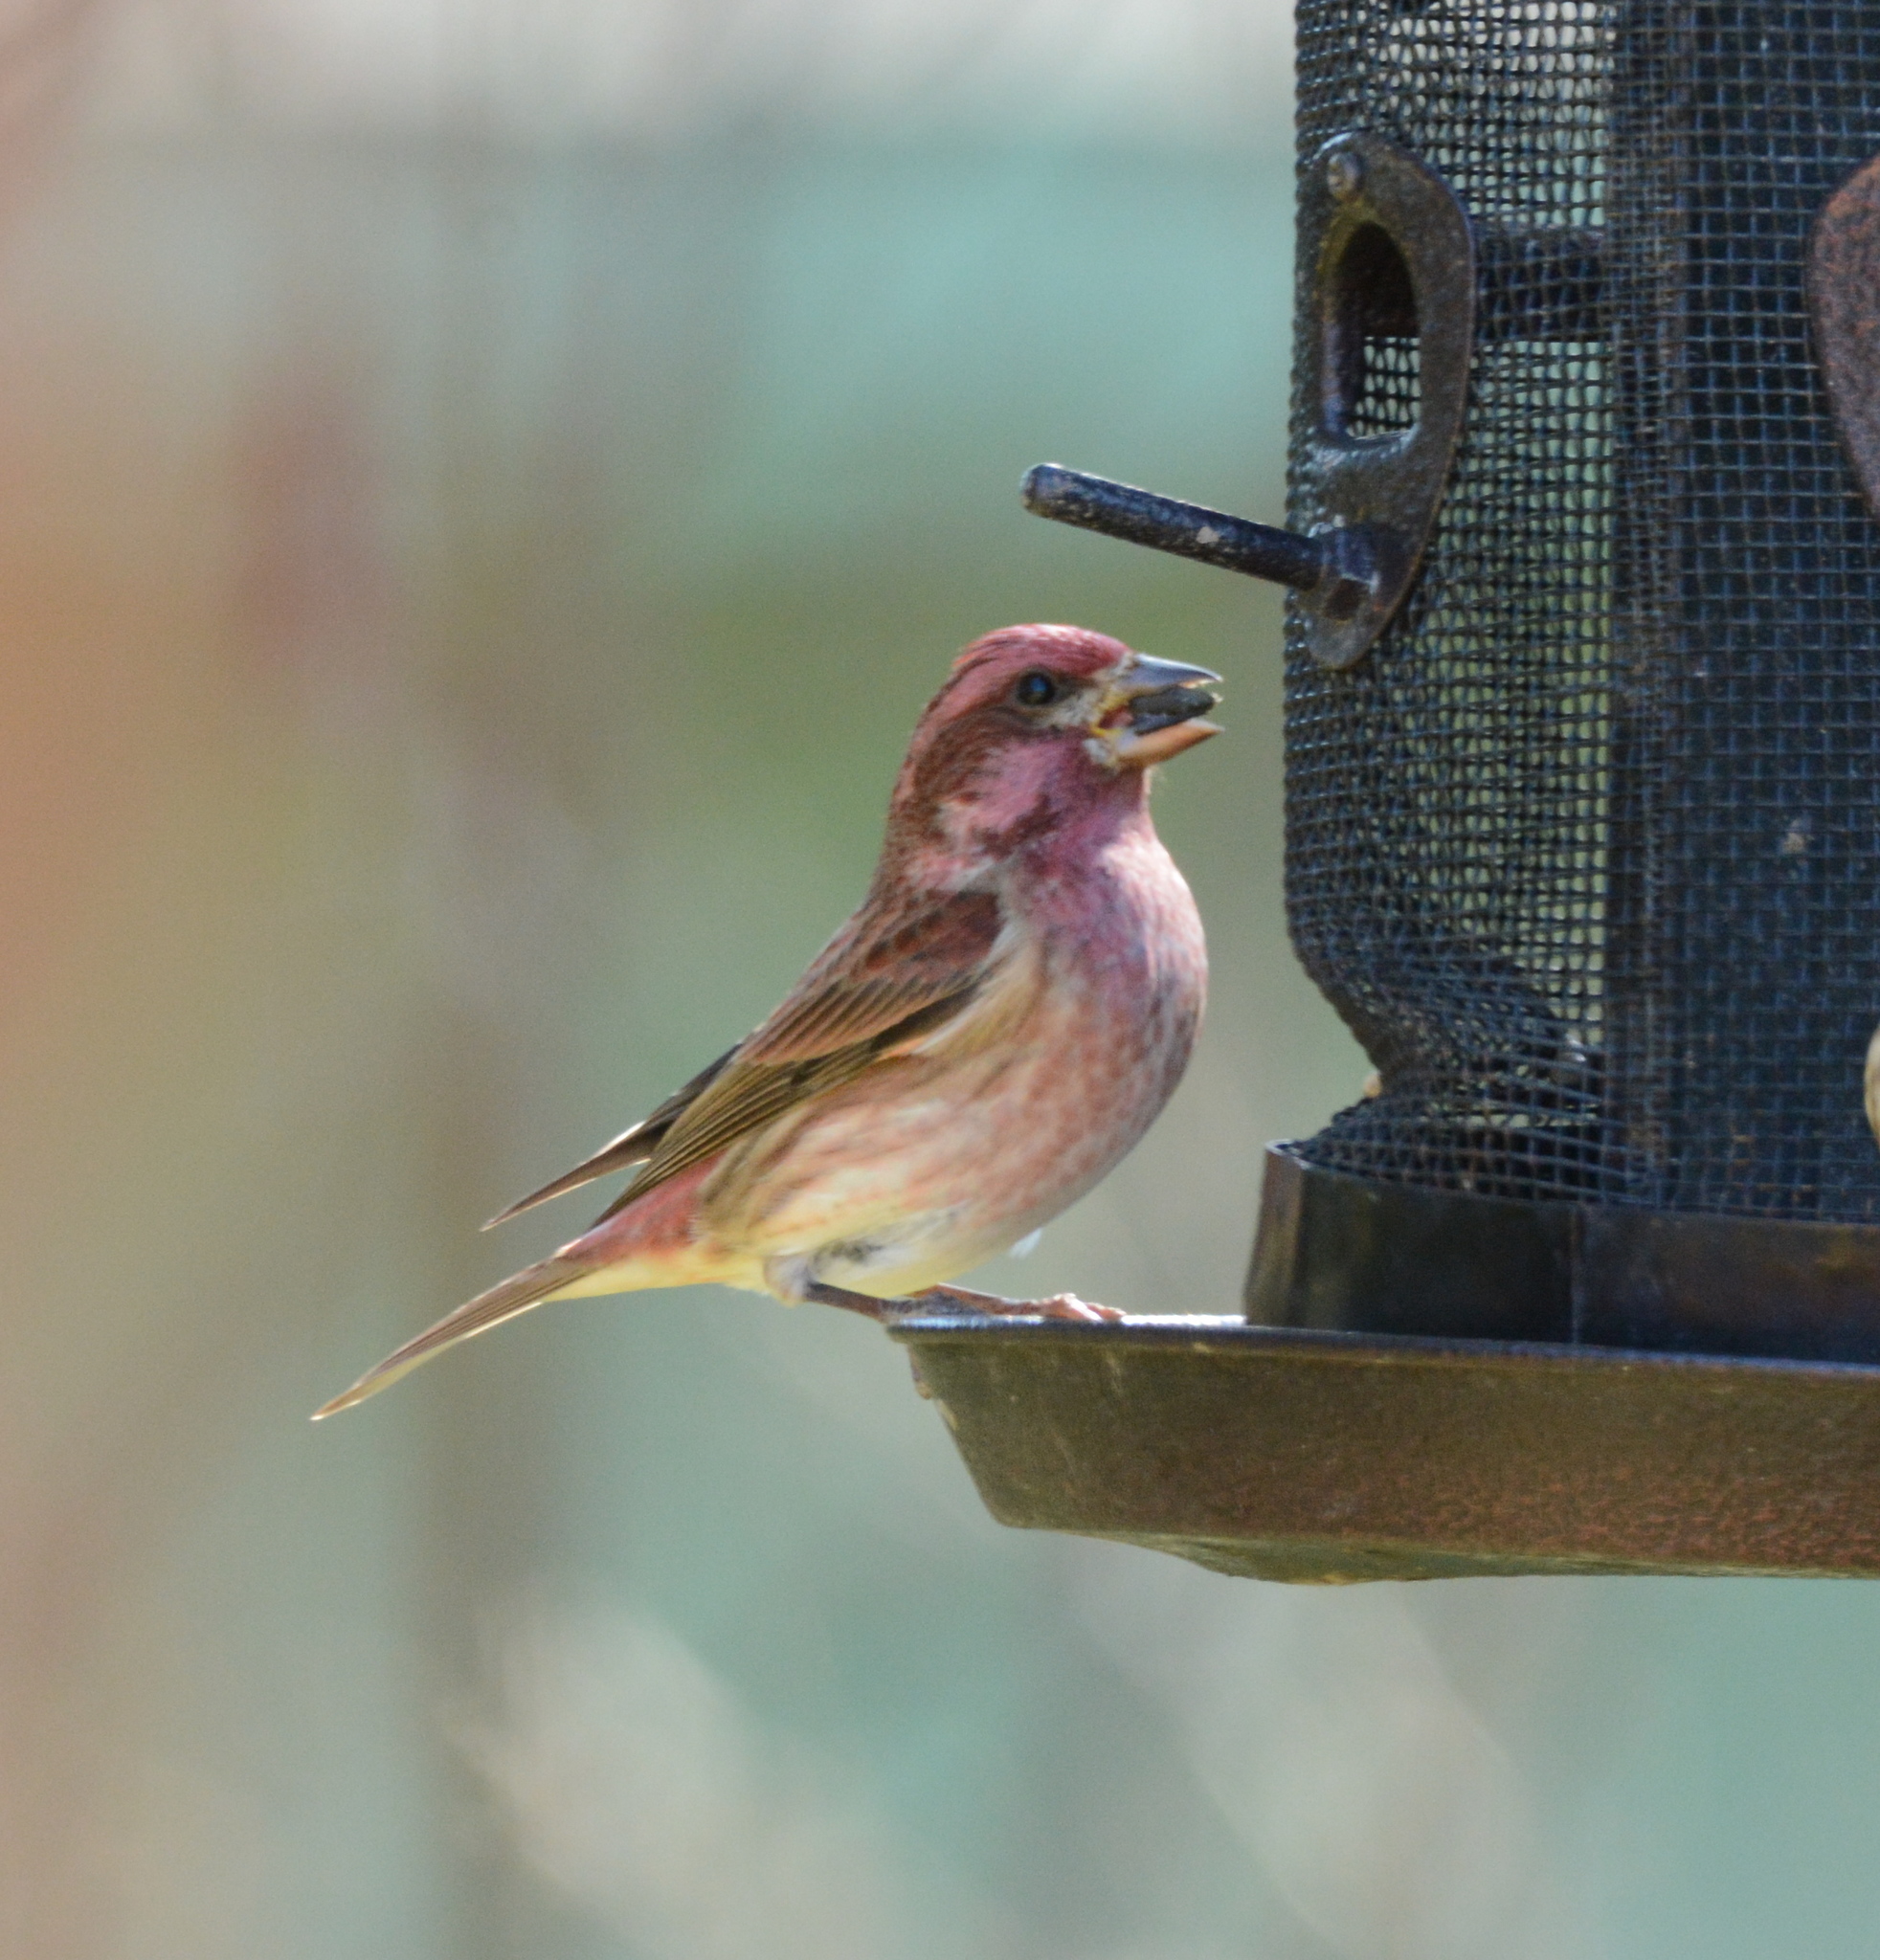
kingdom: Animalia
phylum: Chordata
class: Aves
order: Passeriformes
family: Fringillidae
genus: Haemorhous
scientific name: Haemorhous purpureus
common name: Purple finch
